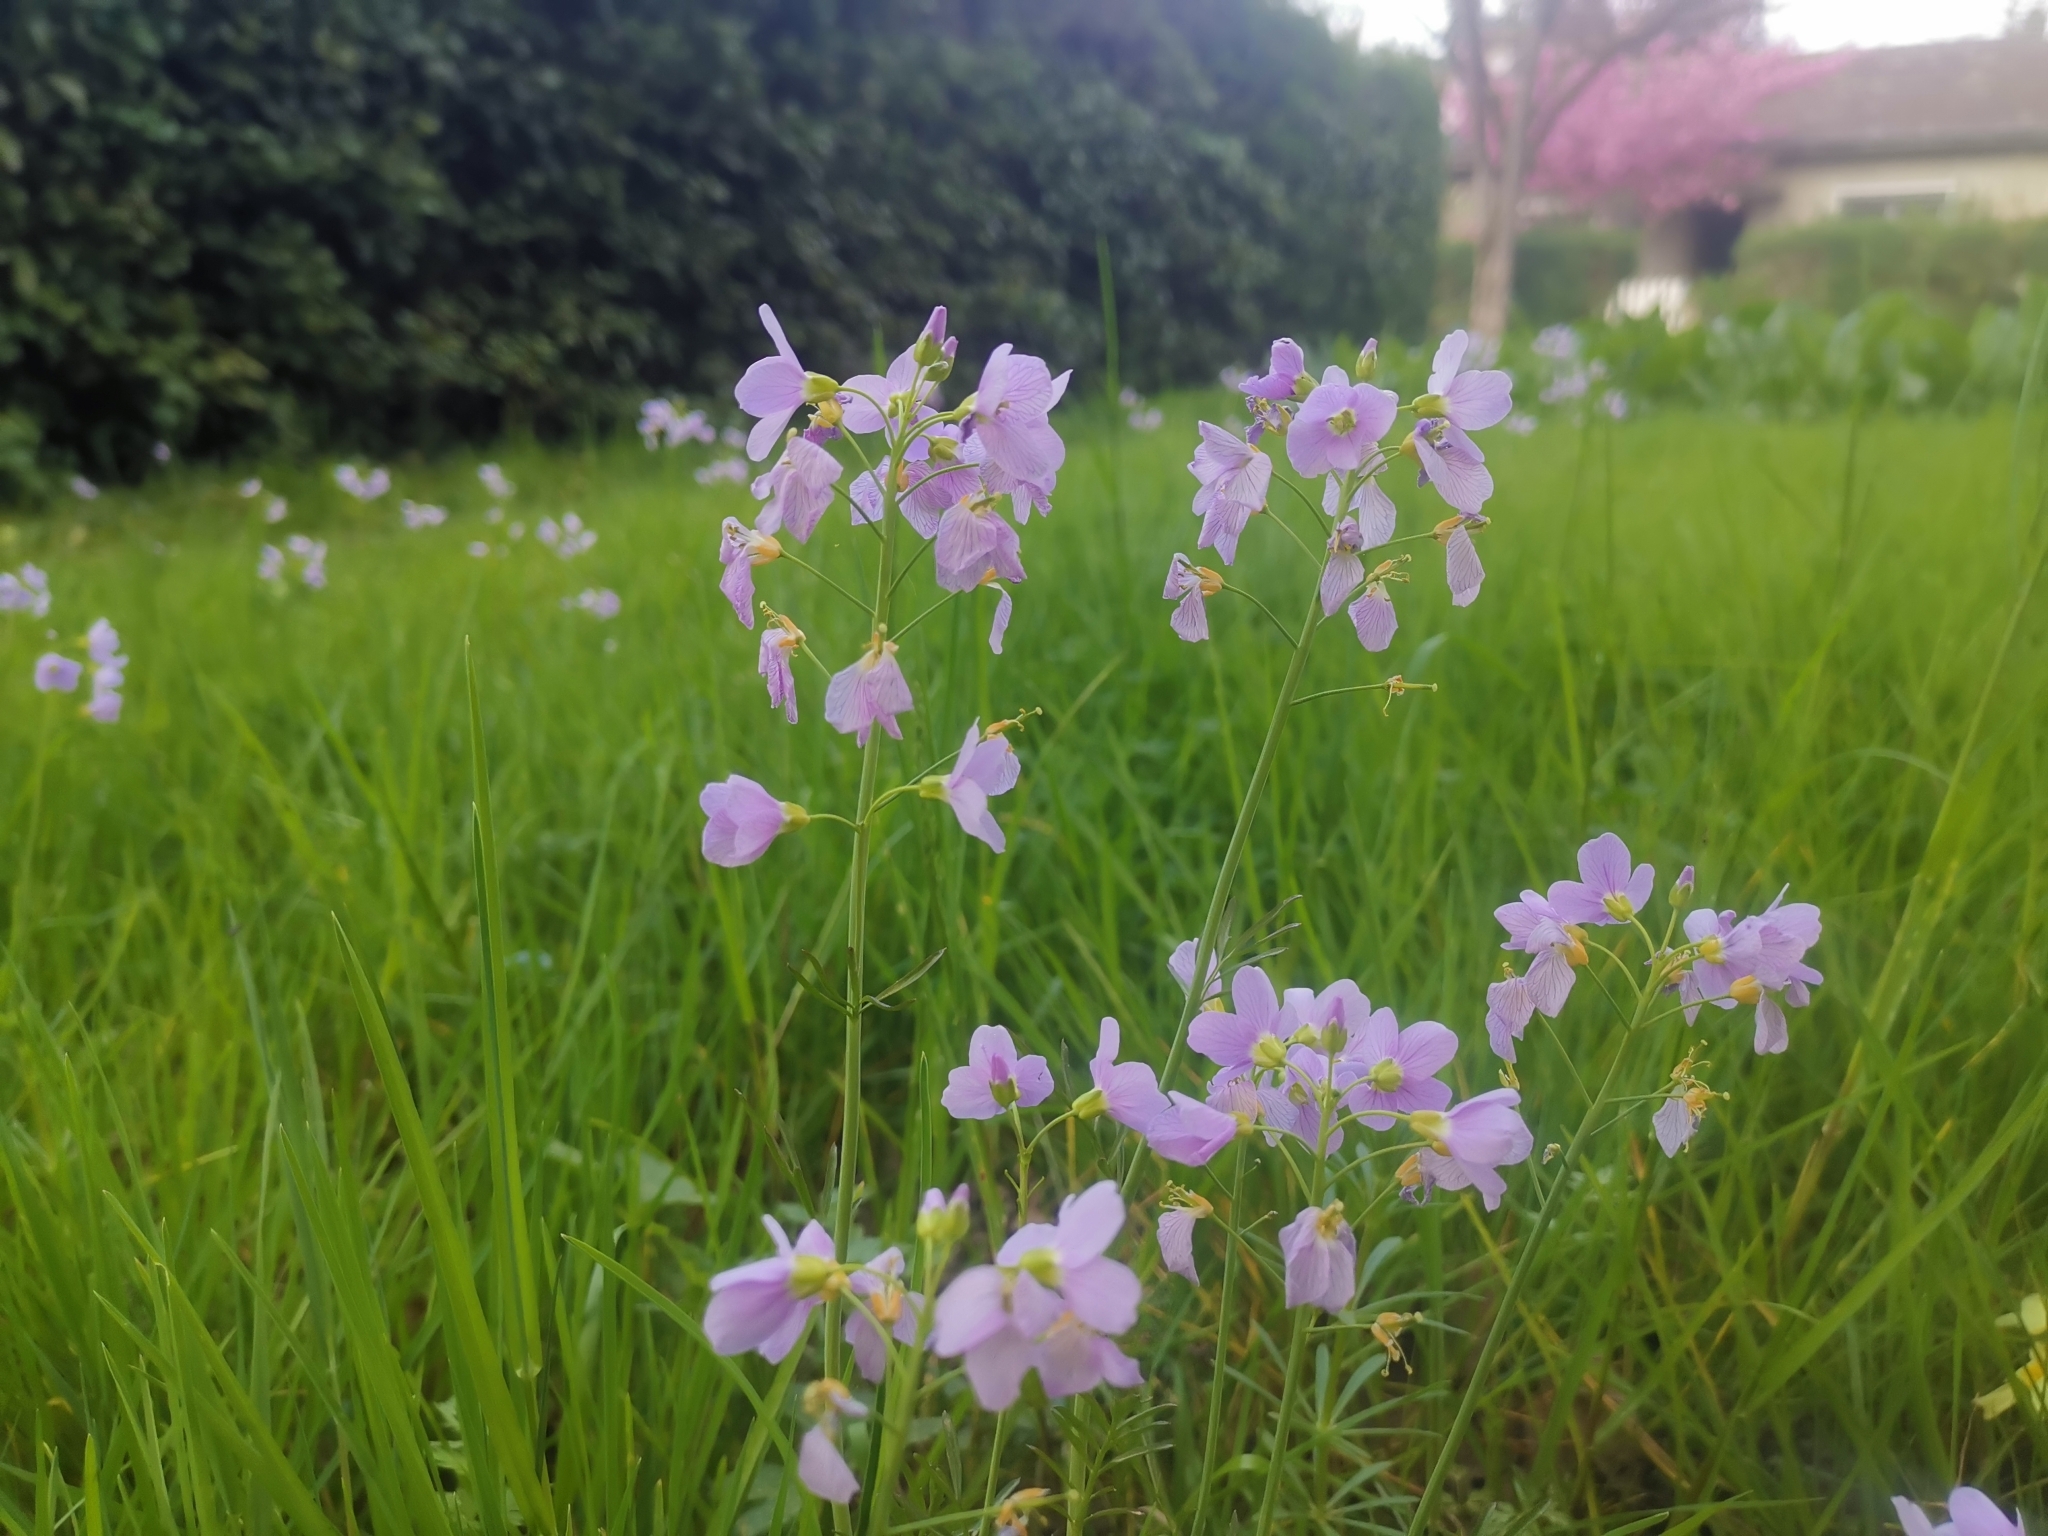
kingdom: Plantae
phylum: Tracheophyta
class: Magnoliopsida
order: Brassicales
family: Brassicaceae
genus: Cardamine
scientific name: Cardamine pratensis
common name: Cuckoo flower
